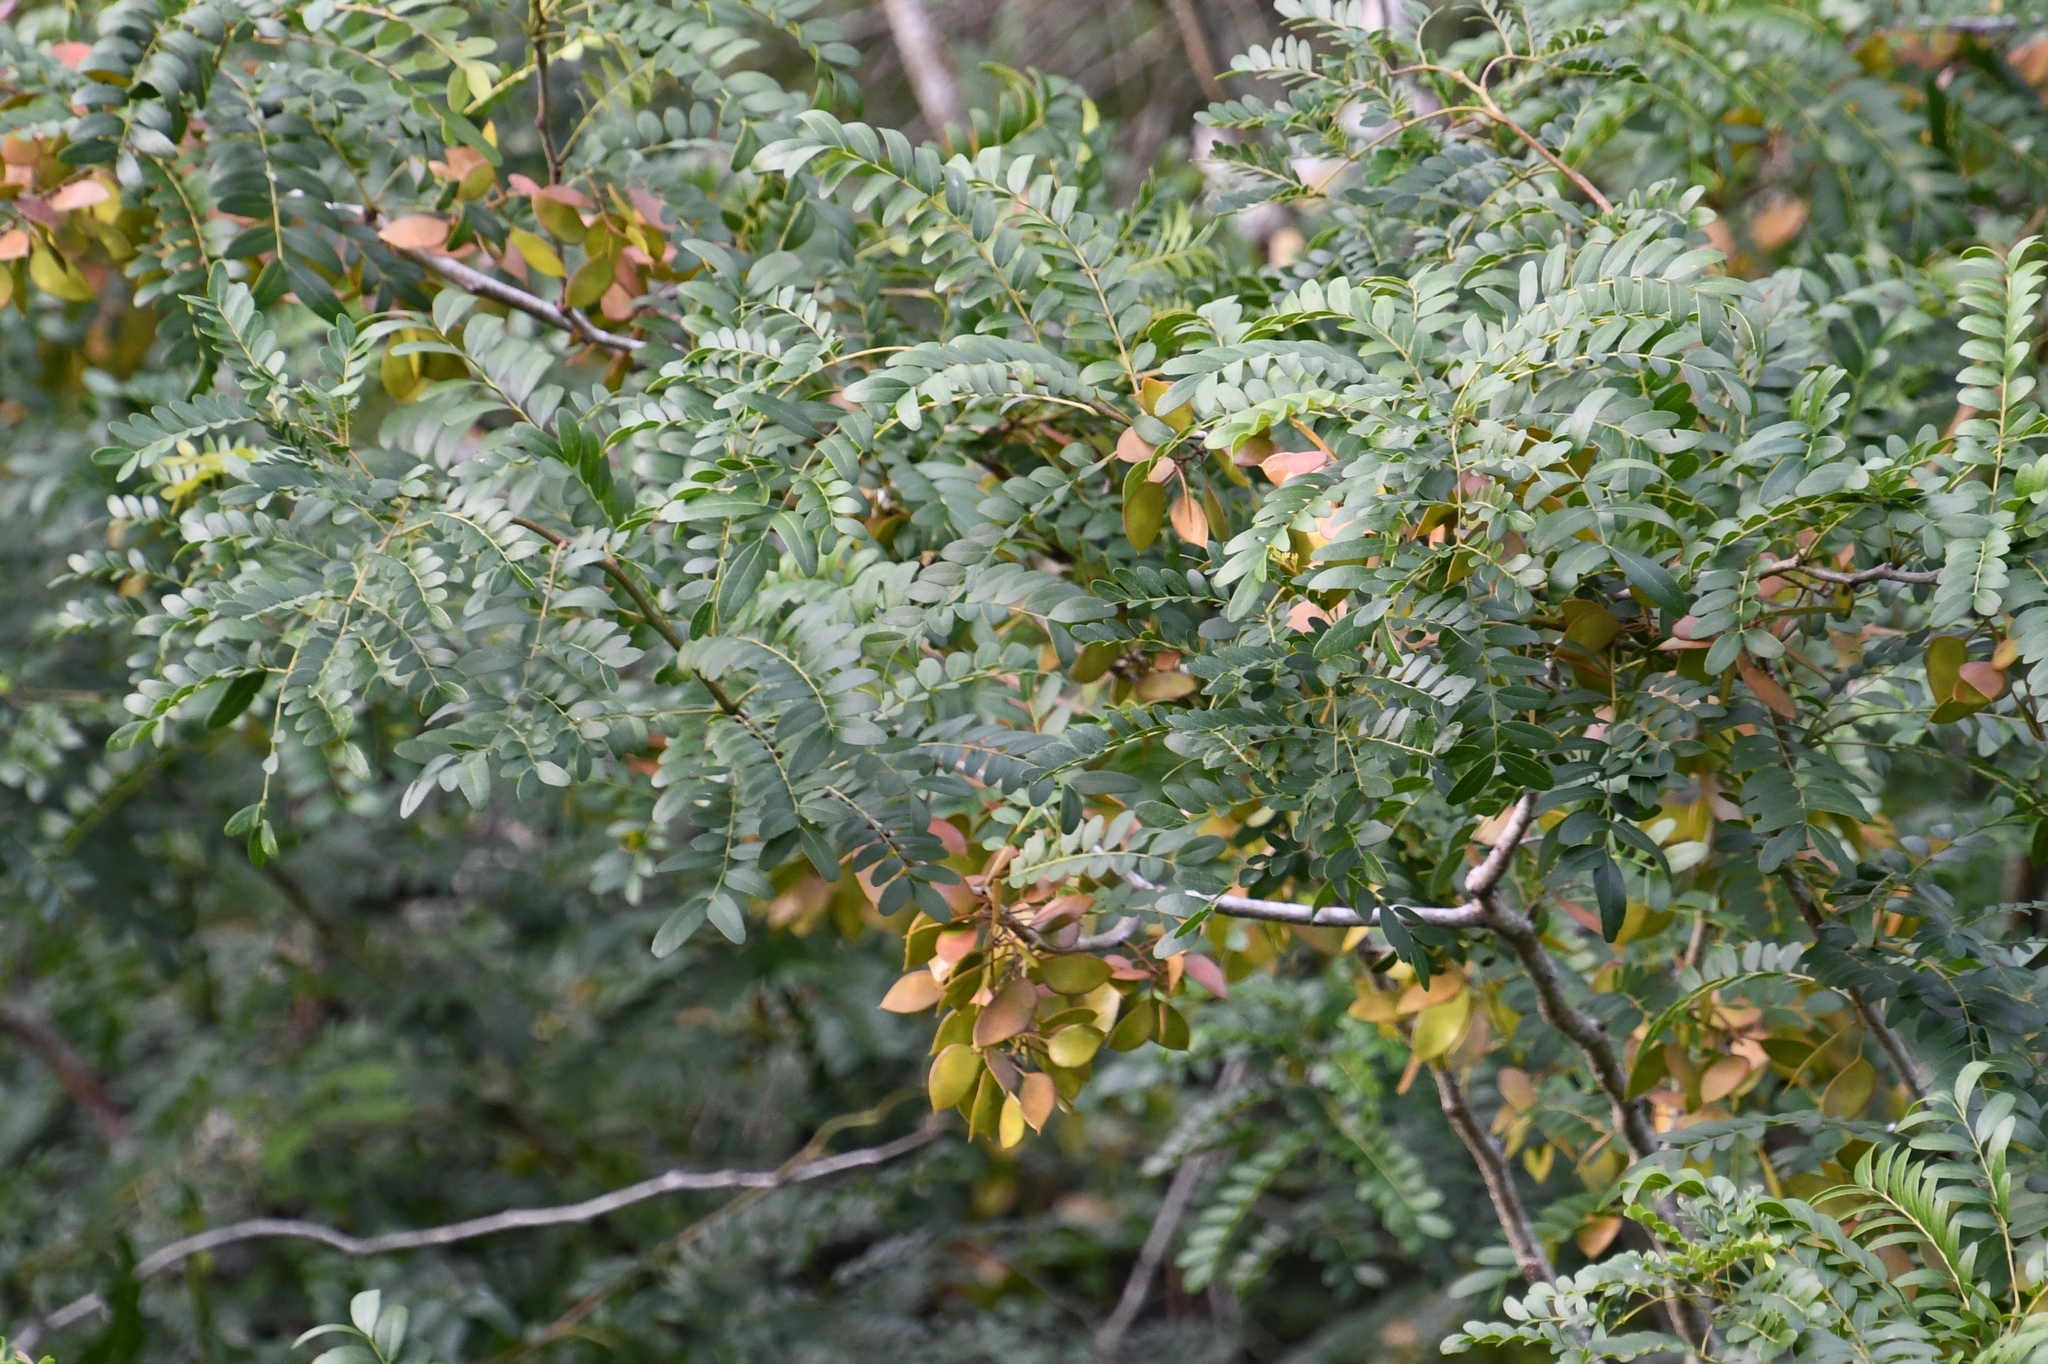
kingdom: Plantae
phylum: Tracheophyta
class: Magnoliopsida
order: Fabales
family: Fabaceae
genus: Gleditsia
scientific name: Gleditsia aquatica
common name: Swamp-locust
